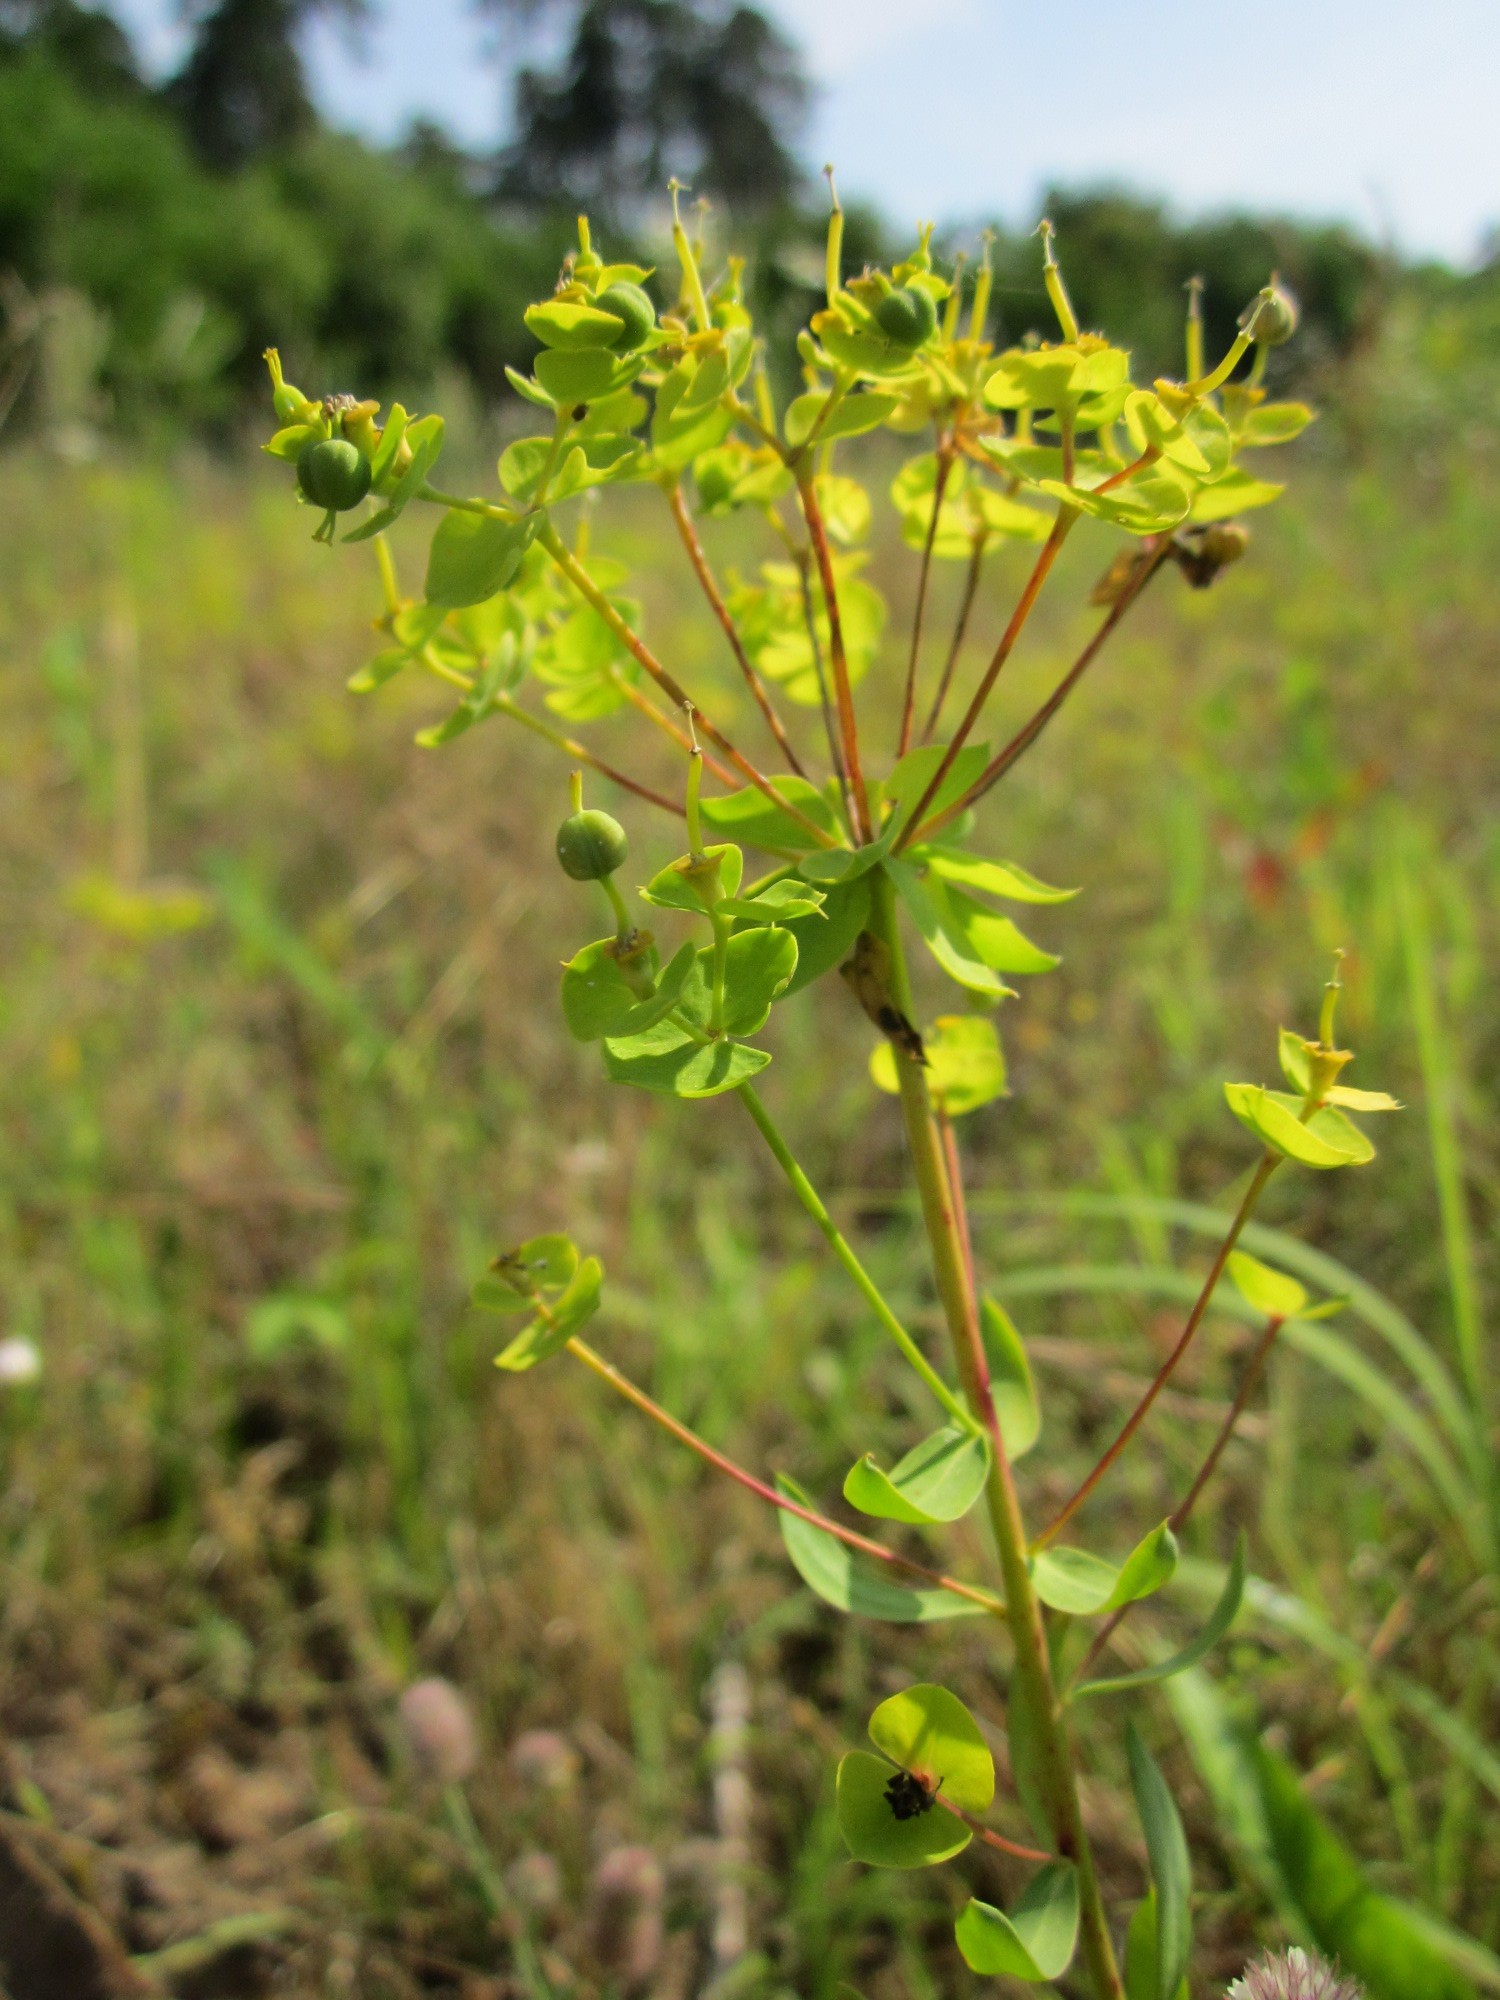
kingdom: Plantae
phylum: Tracheophyta
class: Magnoliopsida
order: Malpighiales
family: Euphorbiaceae
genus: Euphorbia
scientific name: Euphorbia seguieriana
